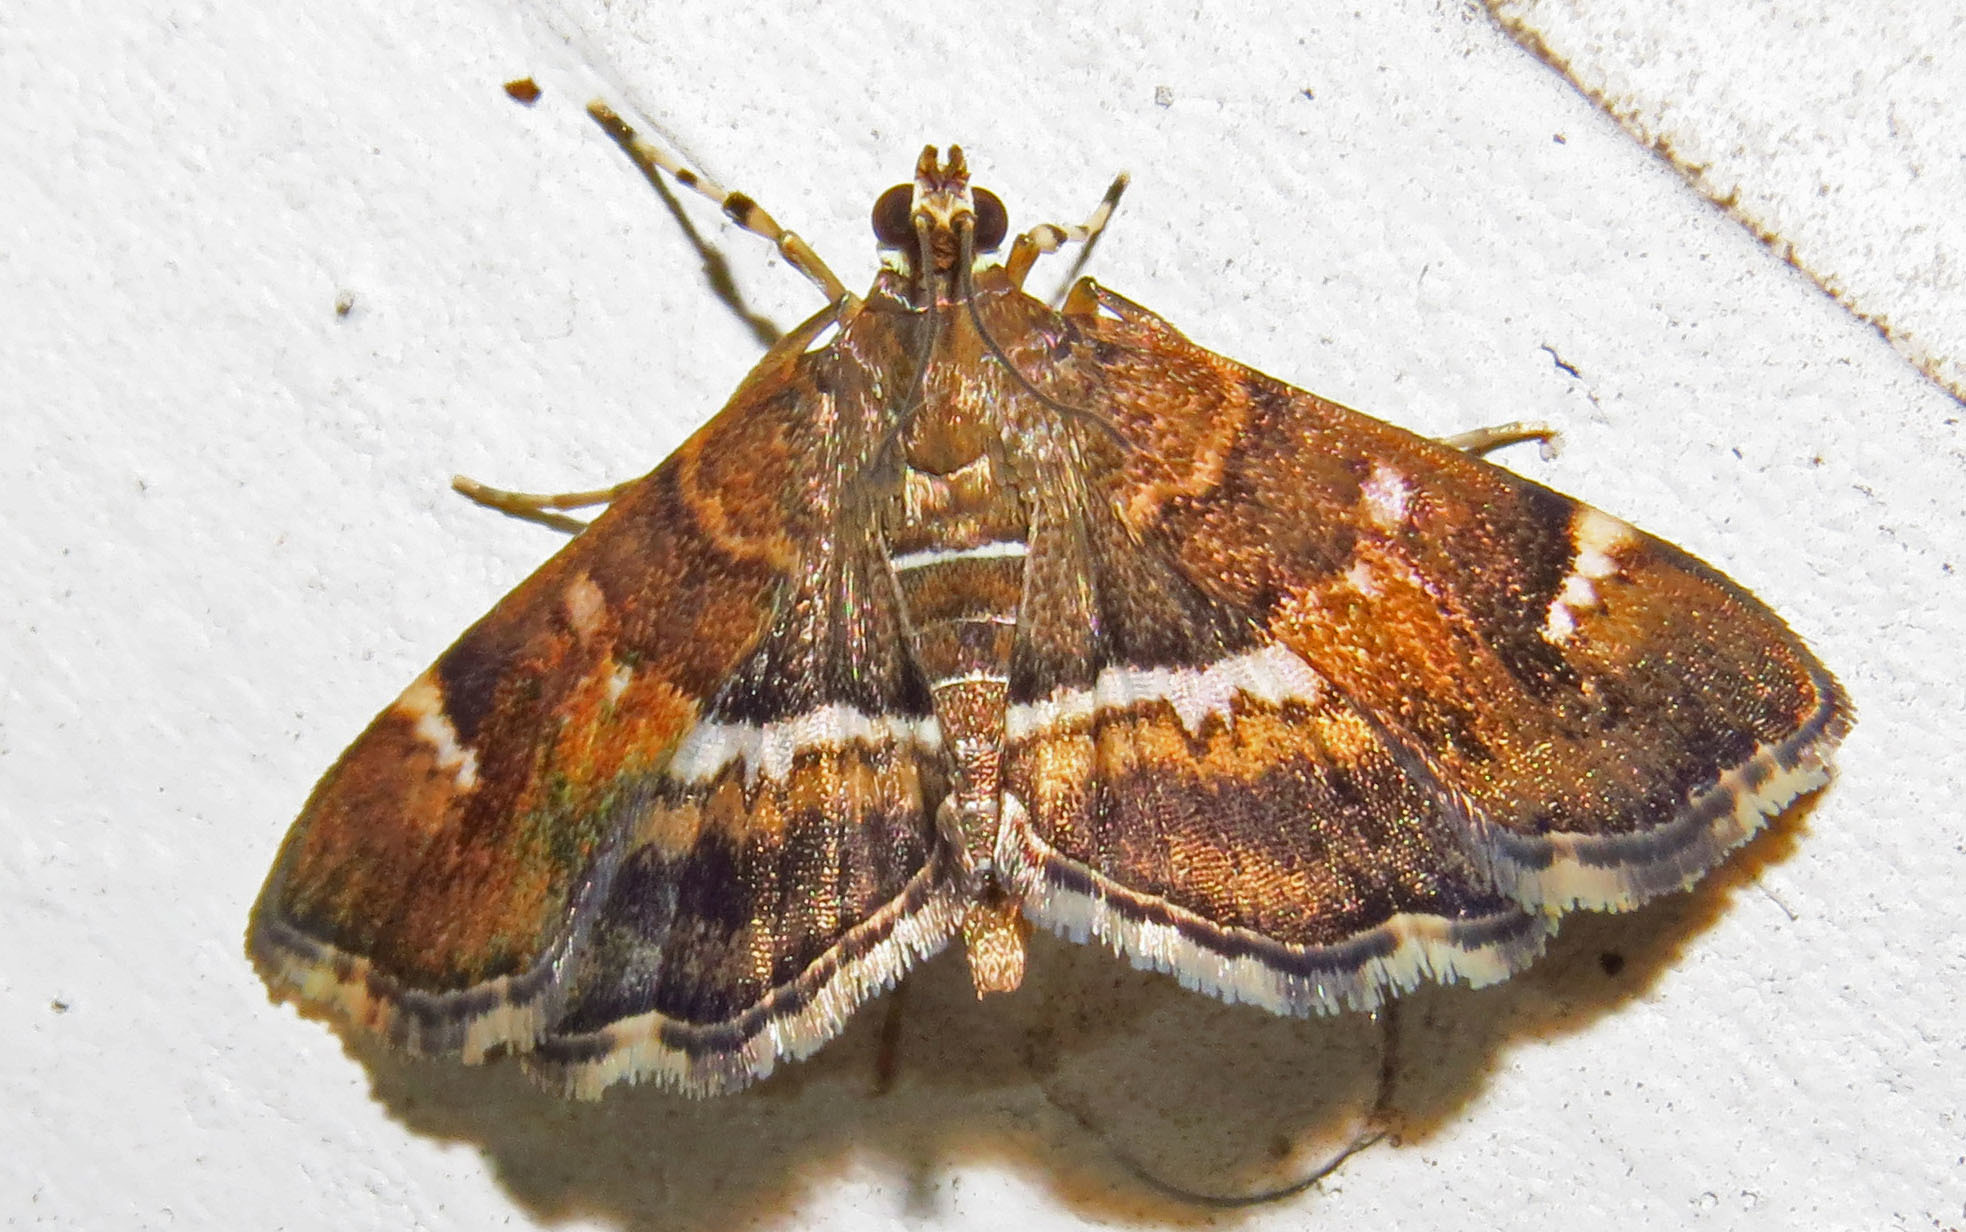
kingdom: Animalia
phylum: Arthropoda
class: Insecta
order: Lepidoptera
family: Crambidae
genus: Hymenia
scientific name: Hymenia perspectalis
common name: Spotted beet webworm
